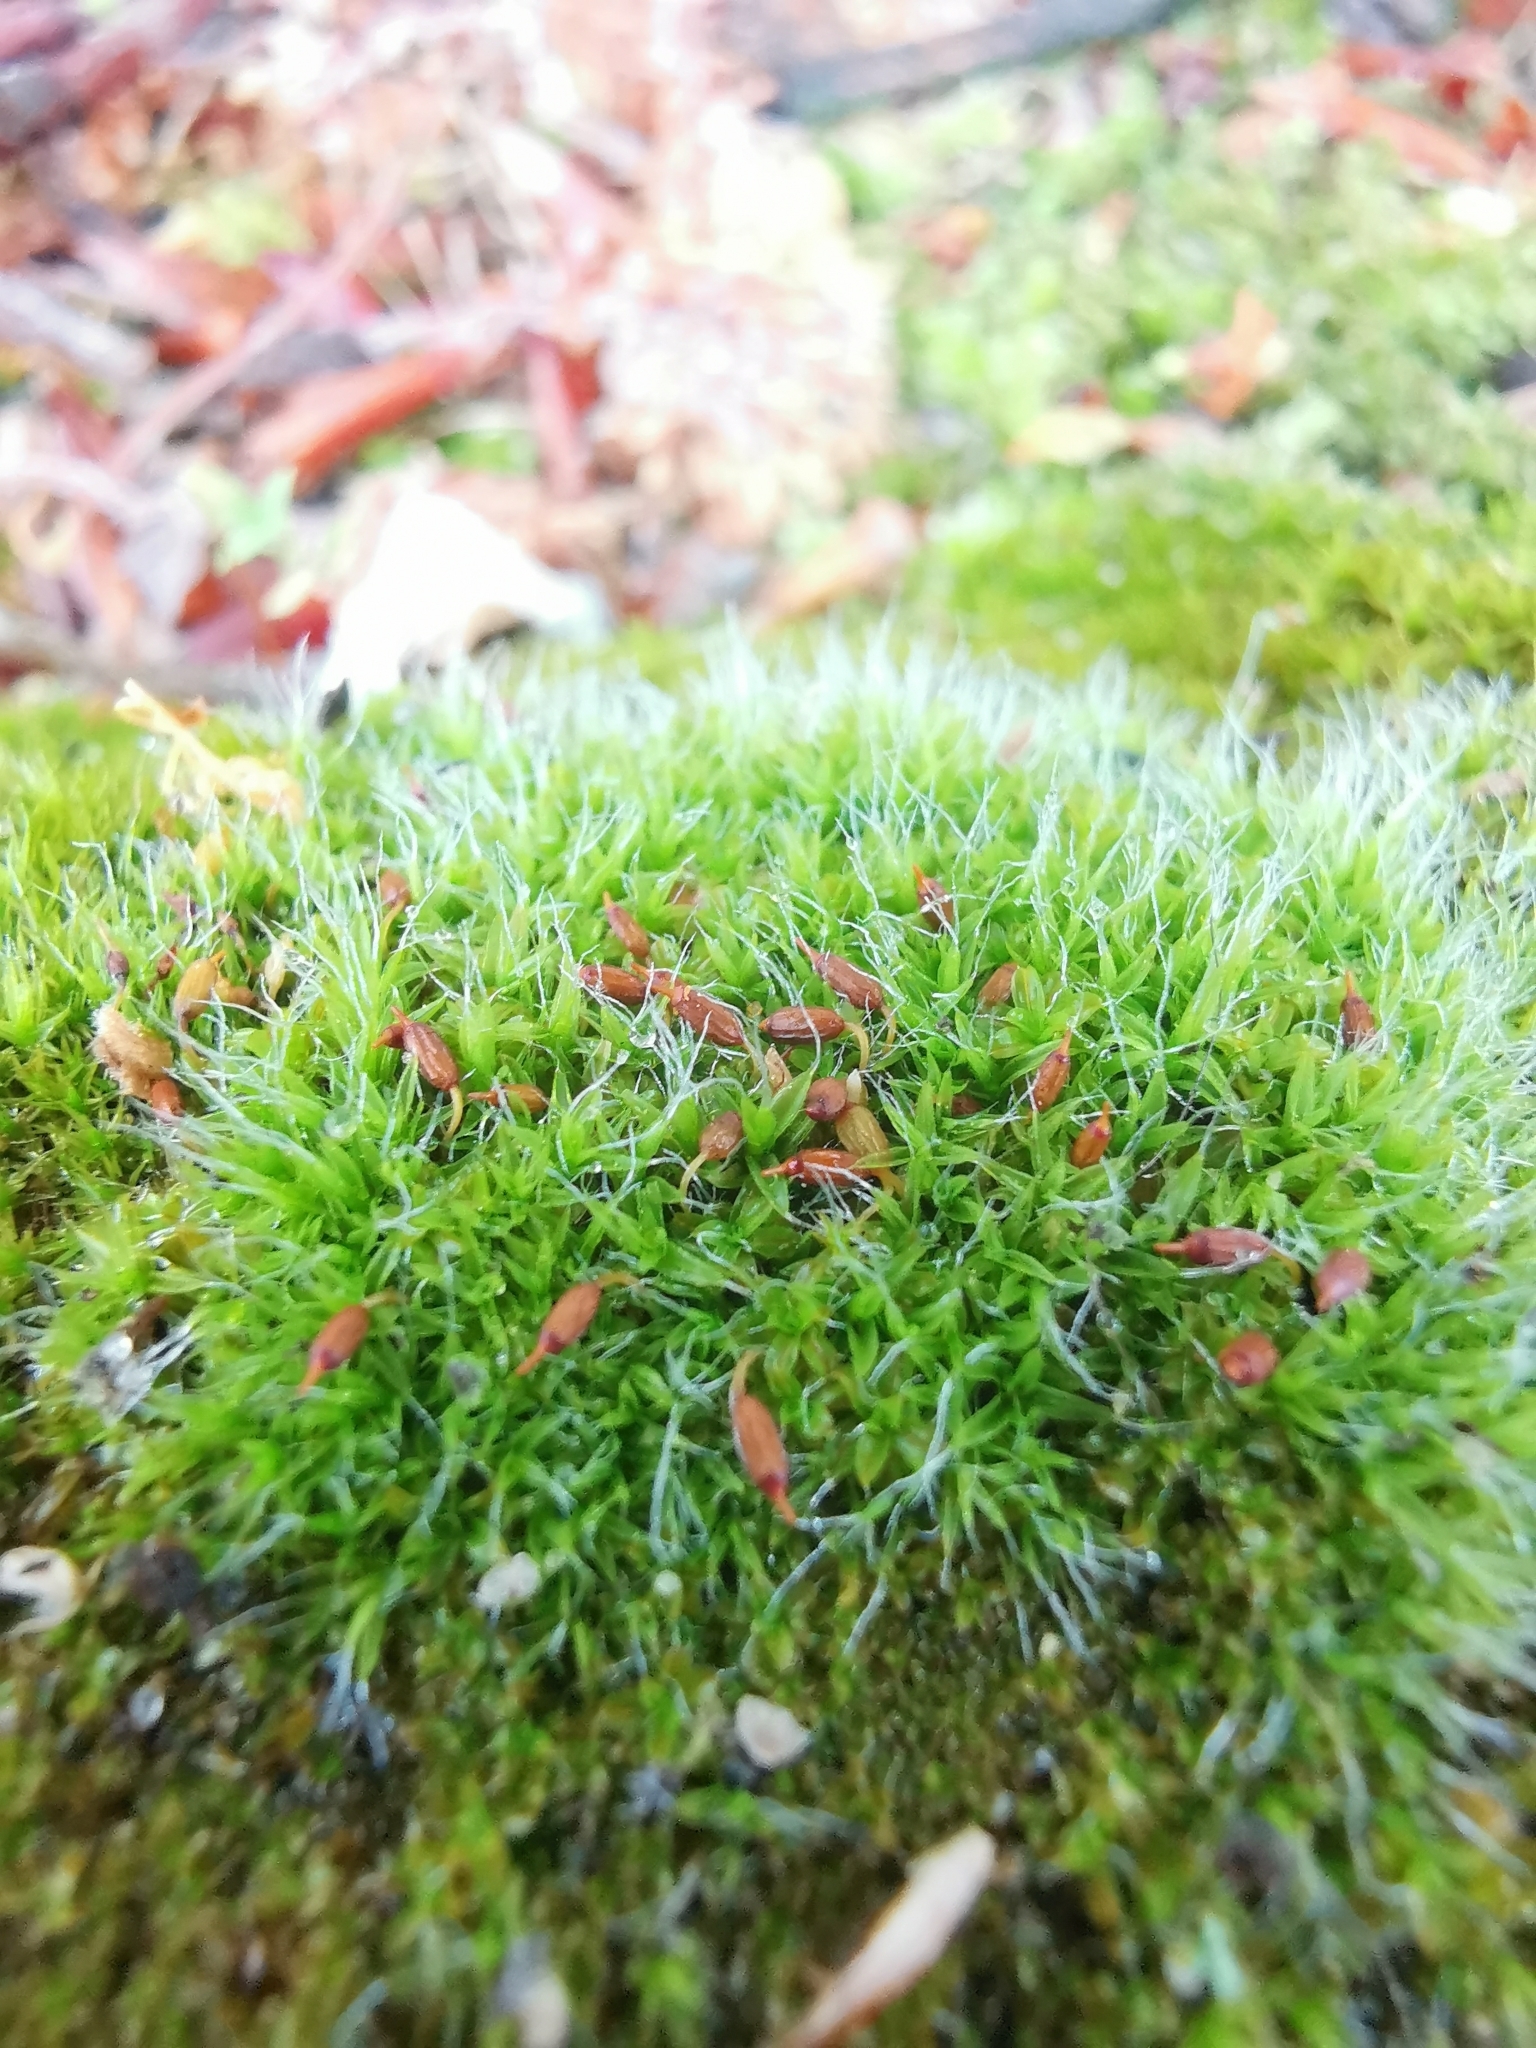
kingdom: Plantae
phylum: Bryophyta
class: Bryopsida
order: Grimmiales
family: Grimmiaceae
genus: Grimmia
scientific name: Grimmia pulvinata
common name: Grey-cushioned grimmia
